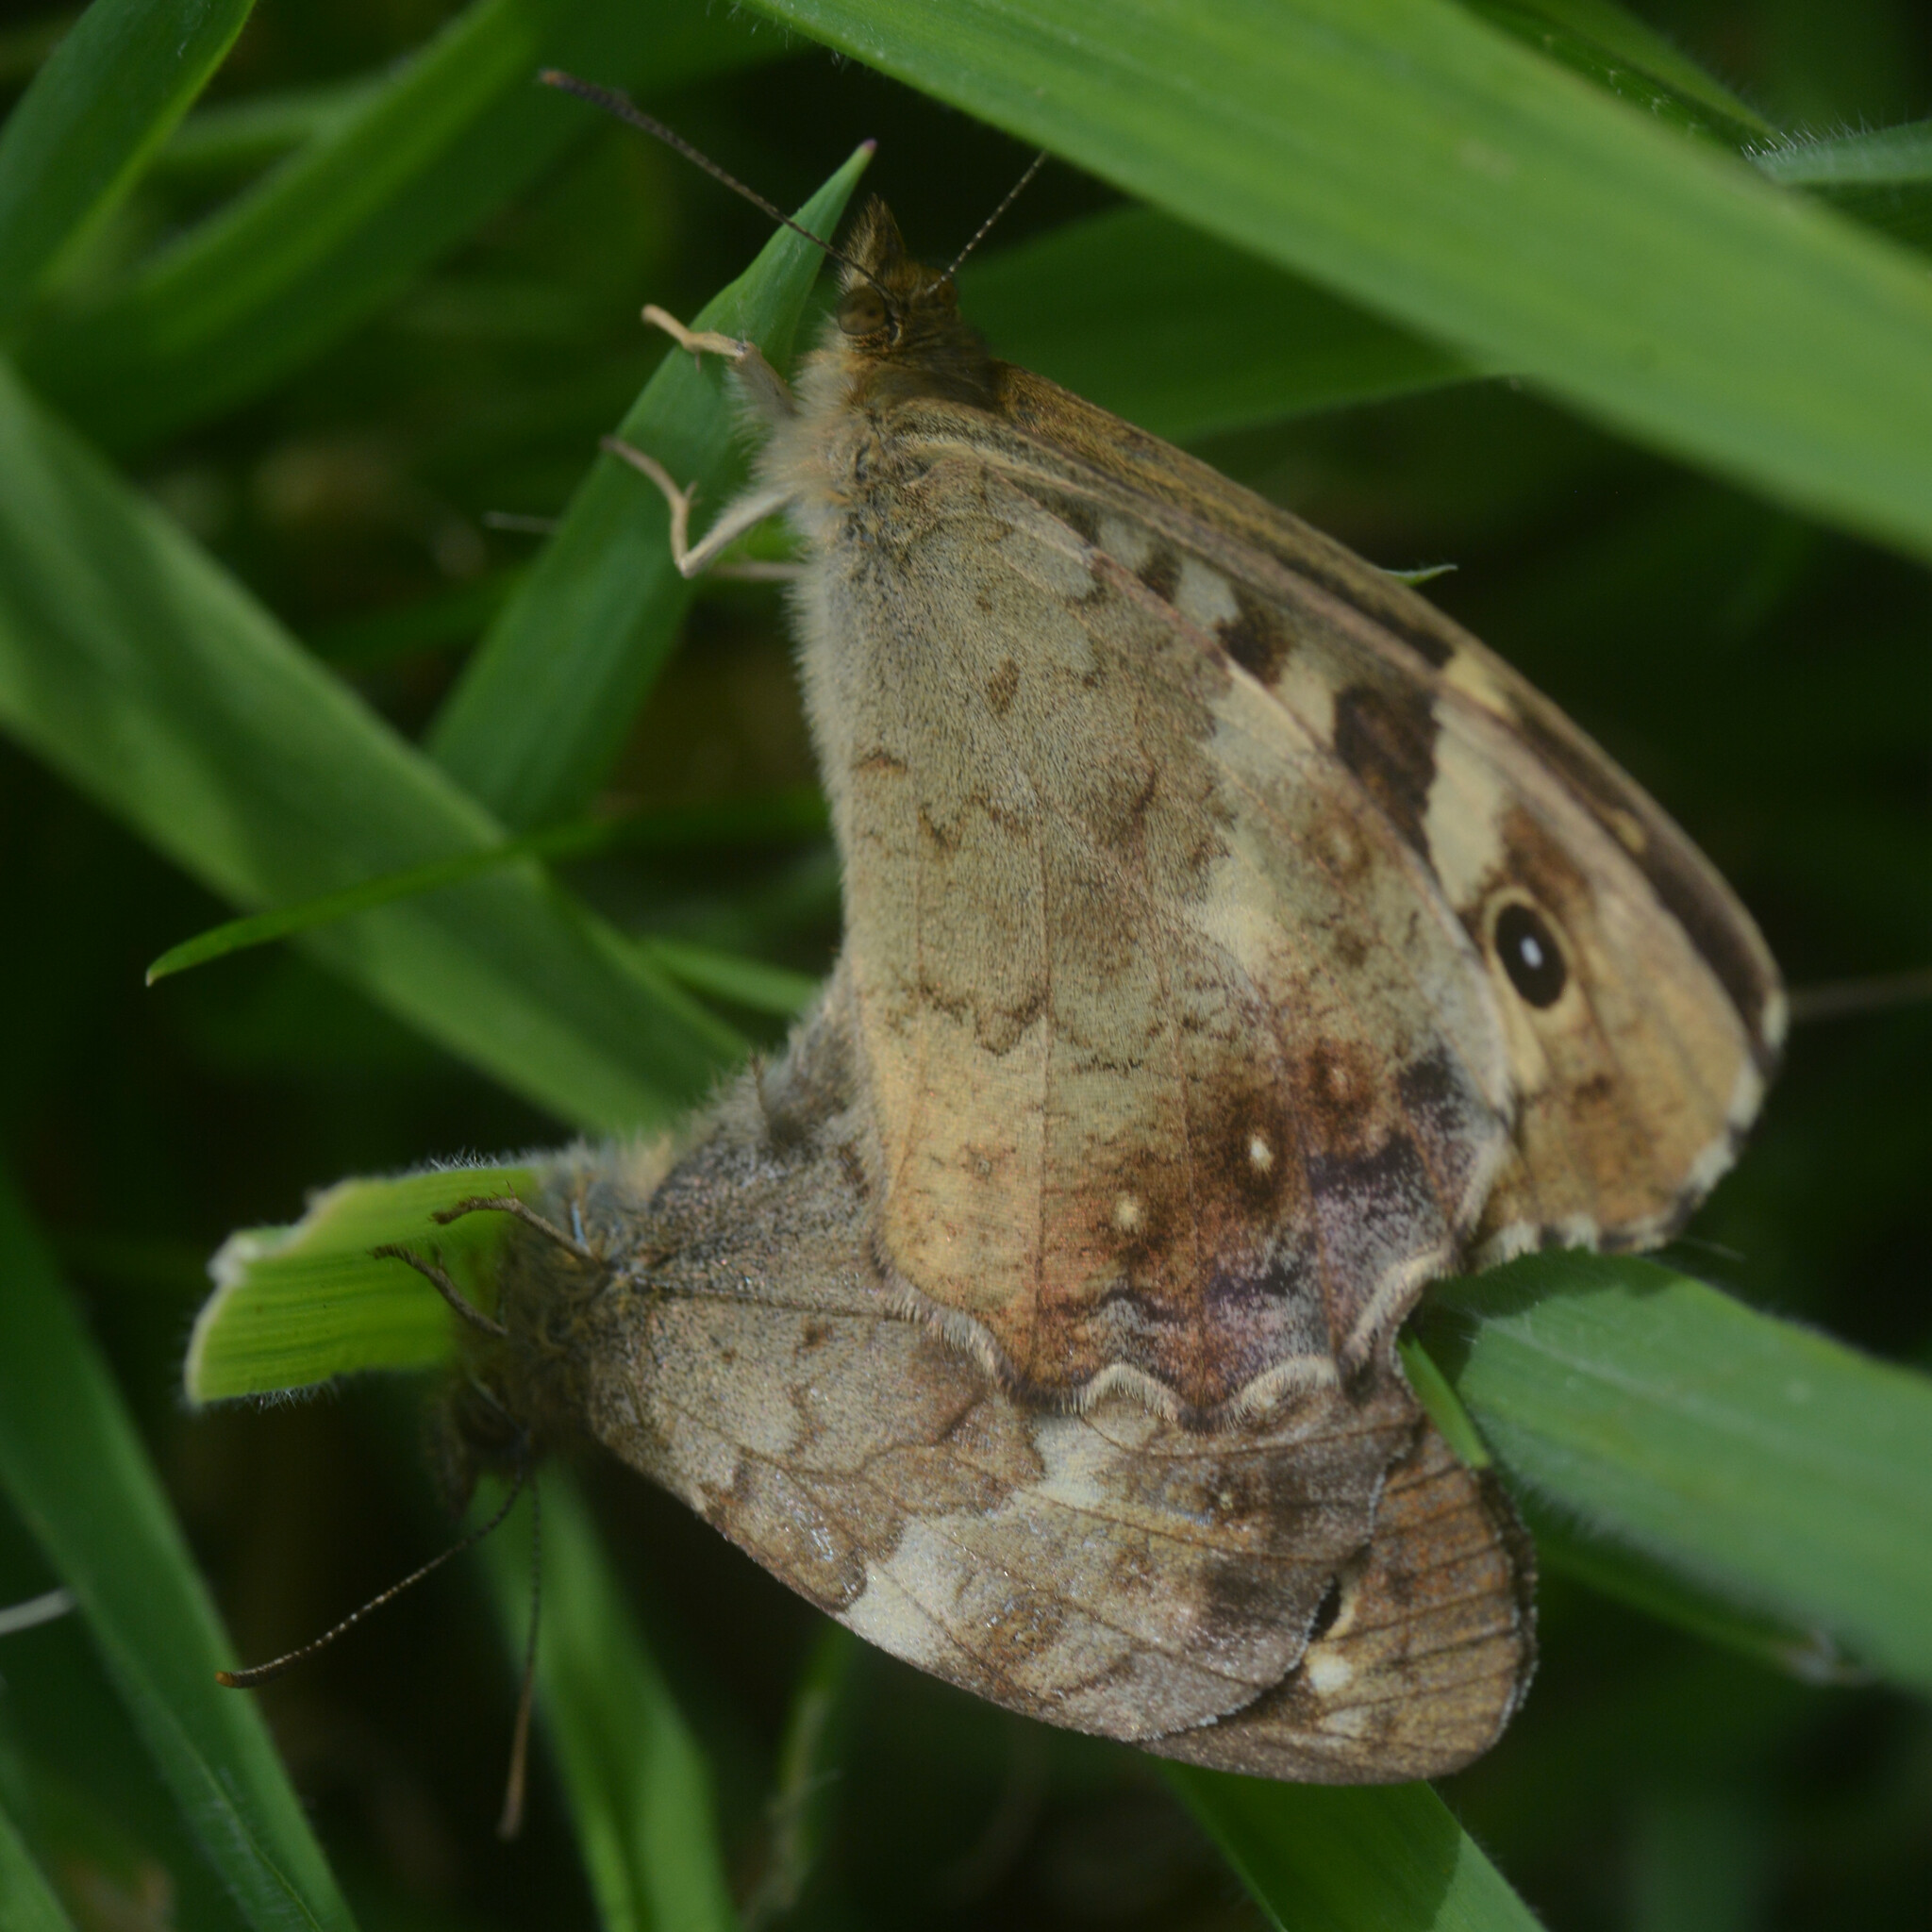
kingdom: Animalia
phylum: Arthropoda
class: Insecta
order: Lepidoptera
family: Nymphalidae
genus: Pararge
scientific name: Pararge aegeria
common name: Speckled wood
